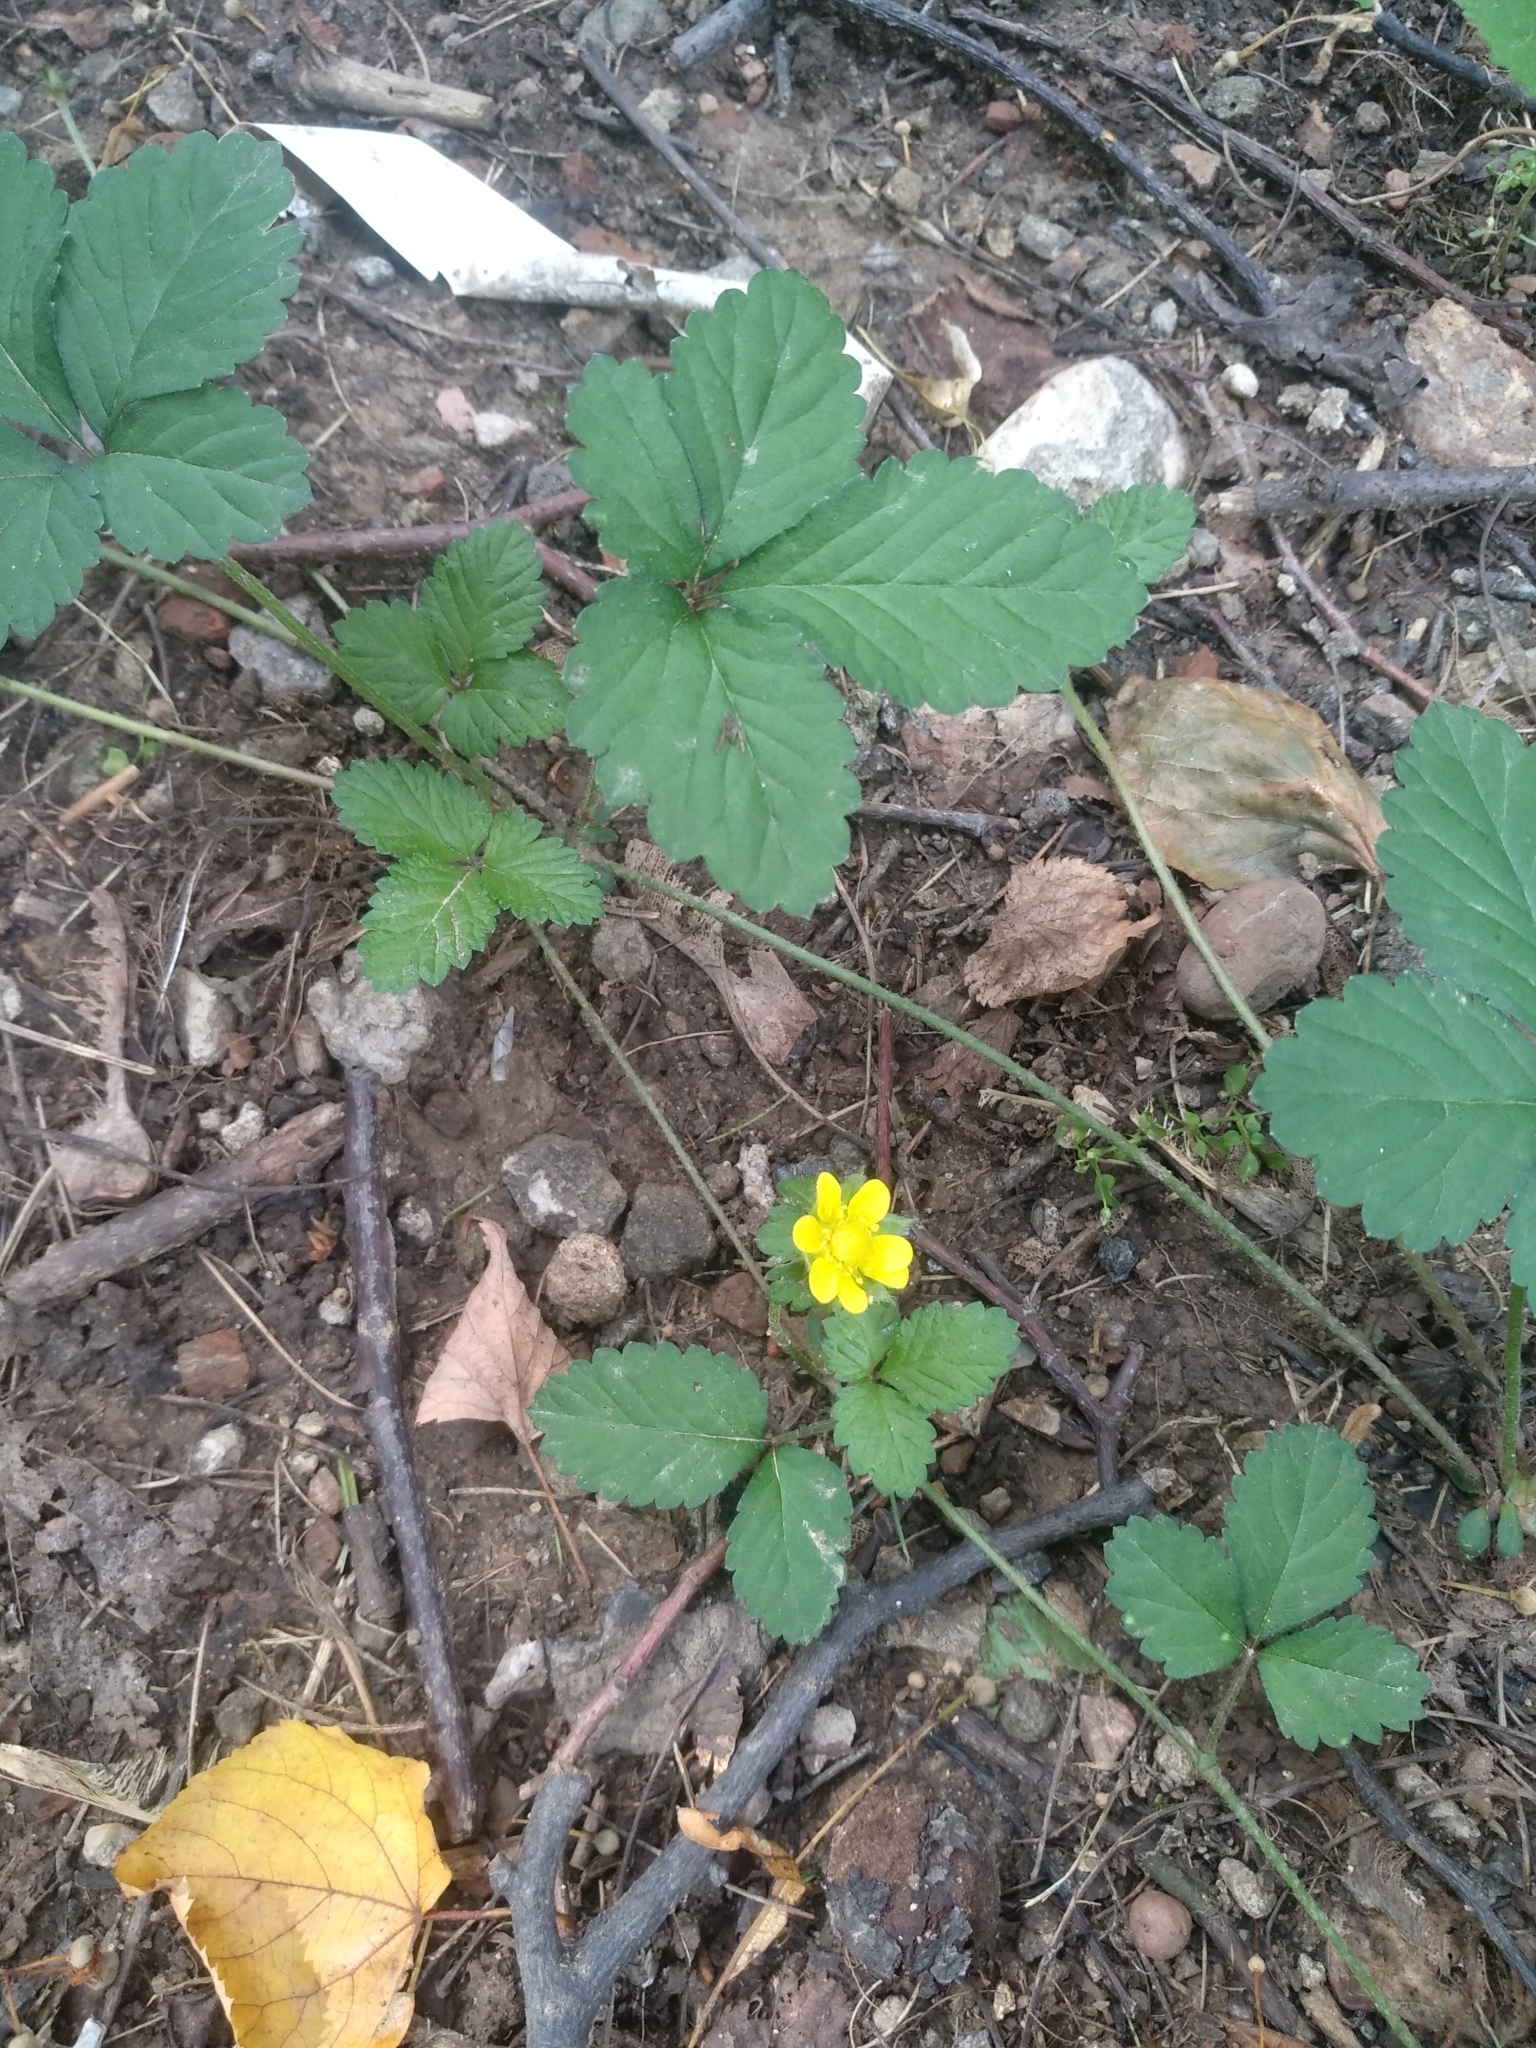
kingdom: Plantae
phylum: Tracheophyta
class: Magnoliopsida
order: Rosales
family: Rosaceae
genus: Potentilla
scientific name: Potentilla indica
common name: Yellow-flowered strawberry
